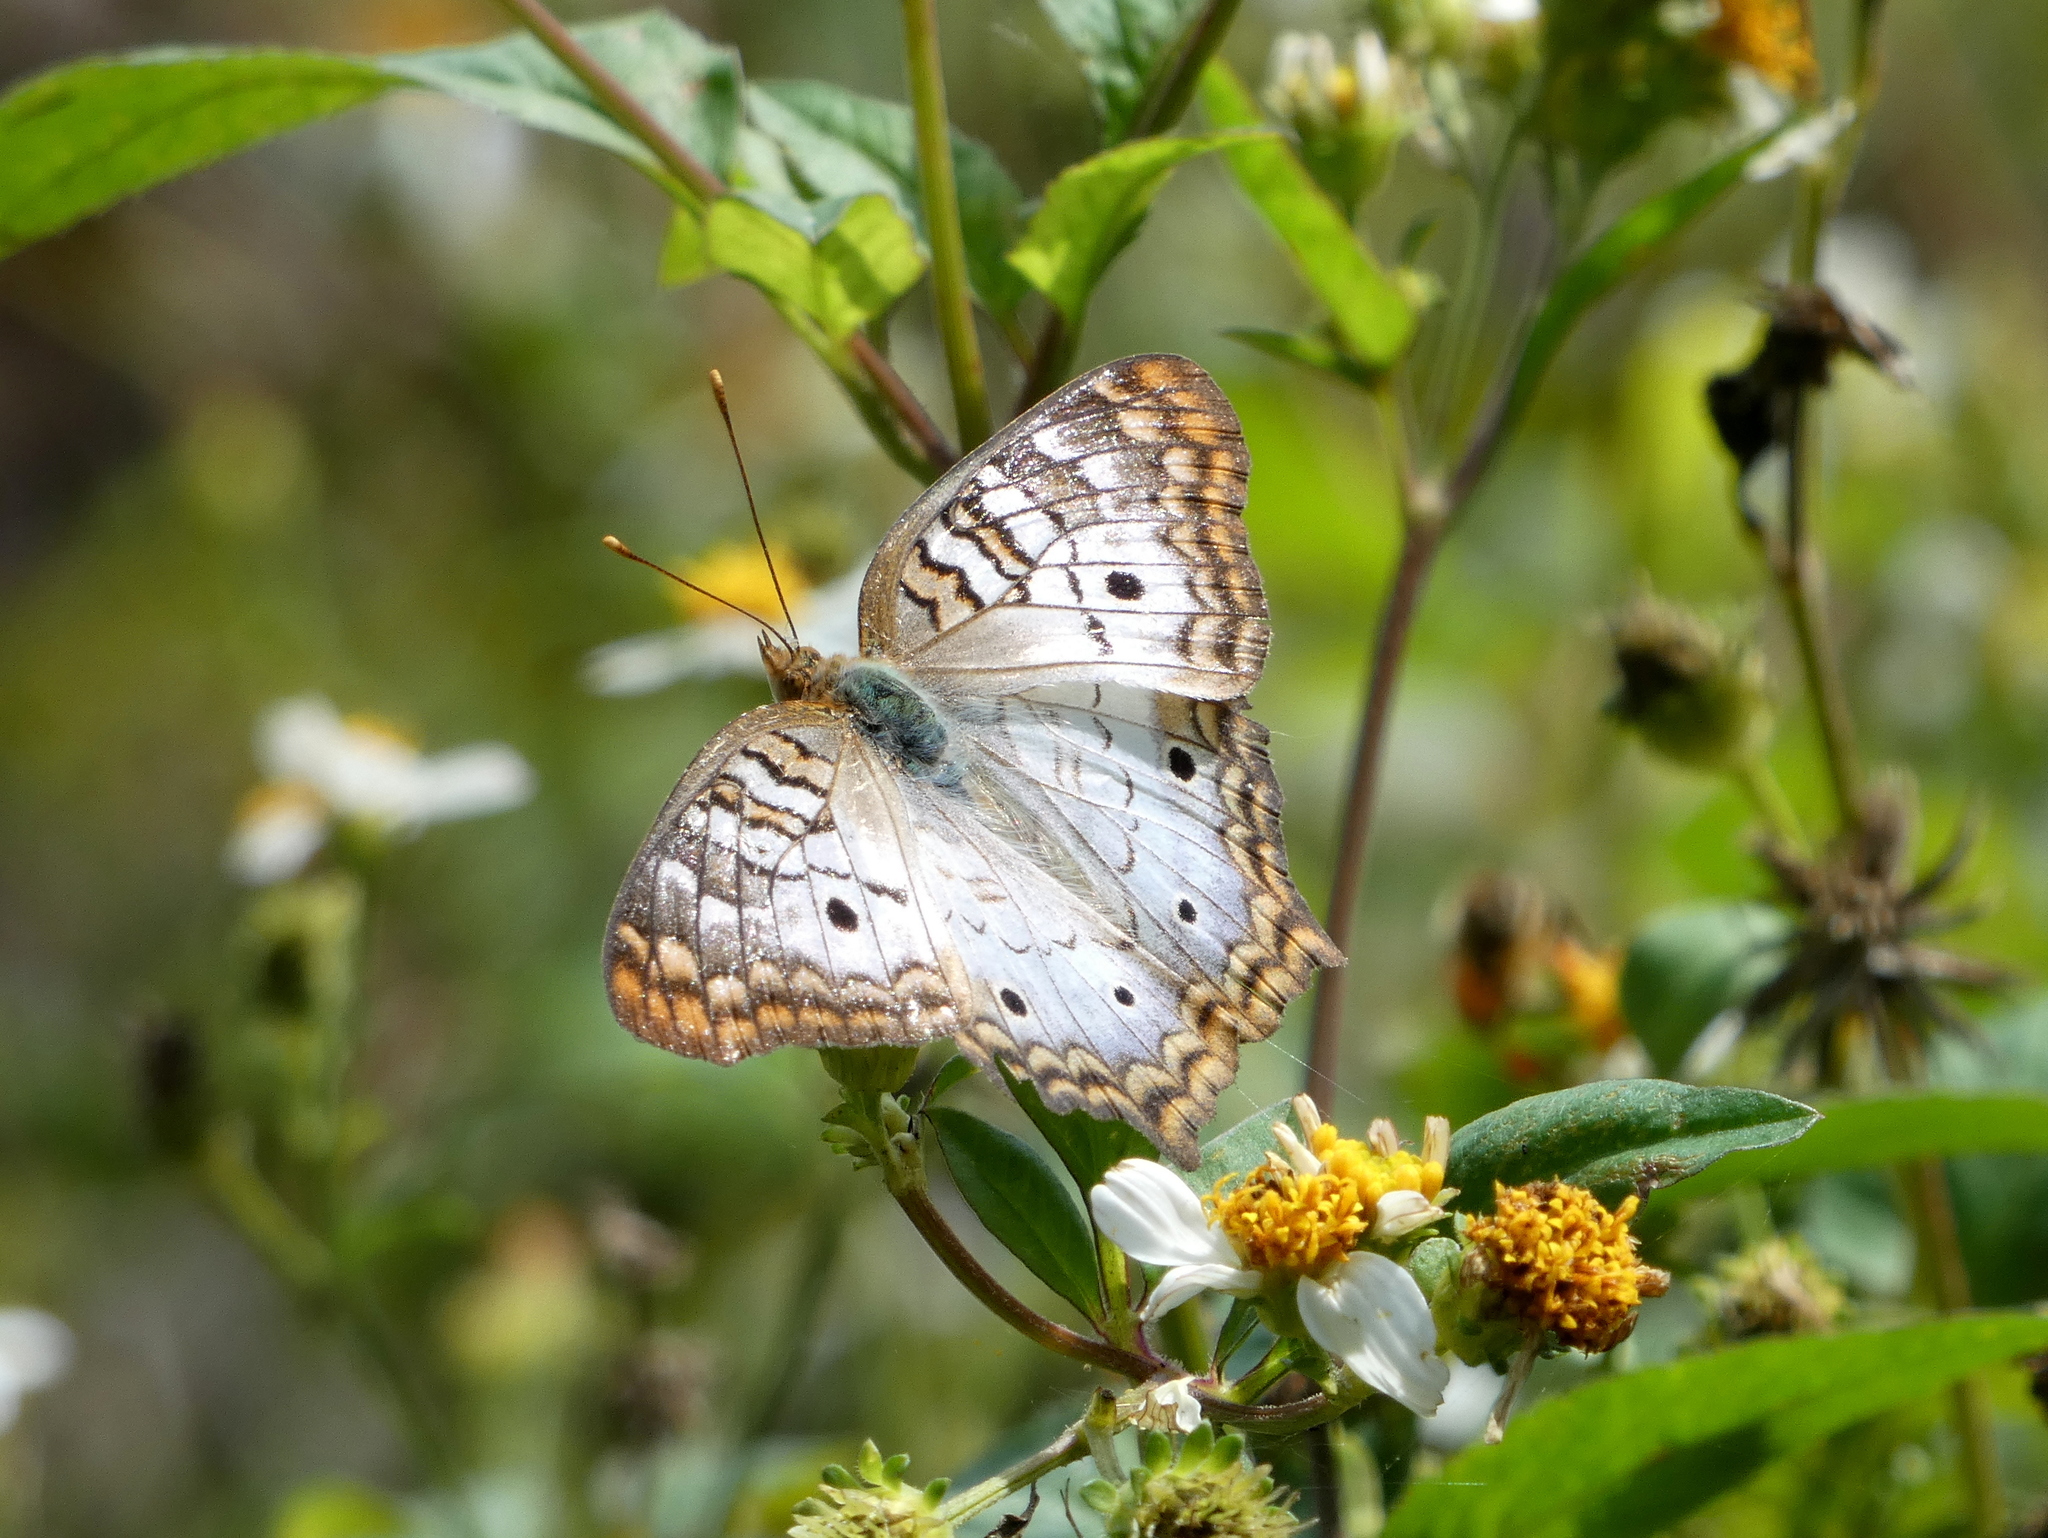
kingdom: Animalia
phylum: Arthropoda
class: Insecta
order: Lepidoptera
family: Nymphalidae
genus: Anartia
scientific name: Anartia jatrophae
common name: White peacock
